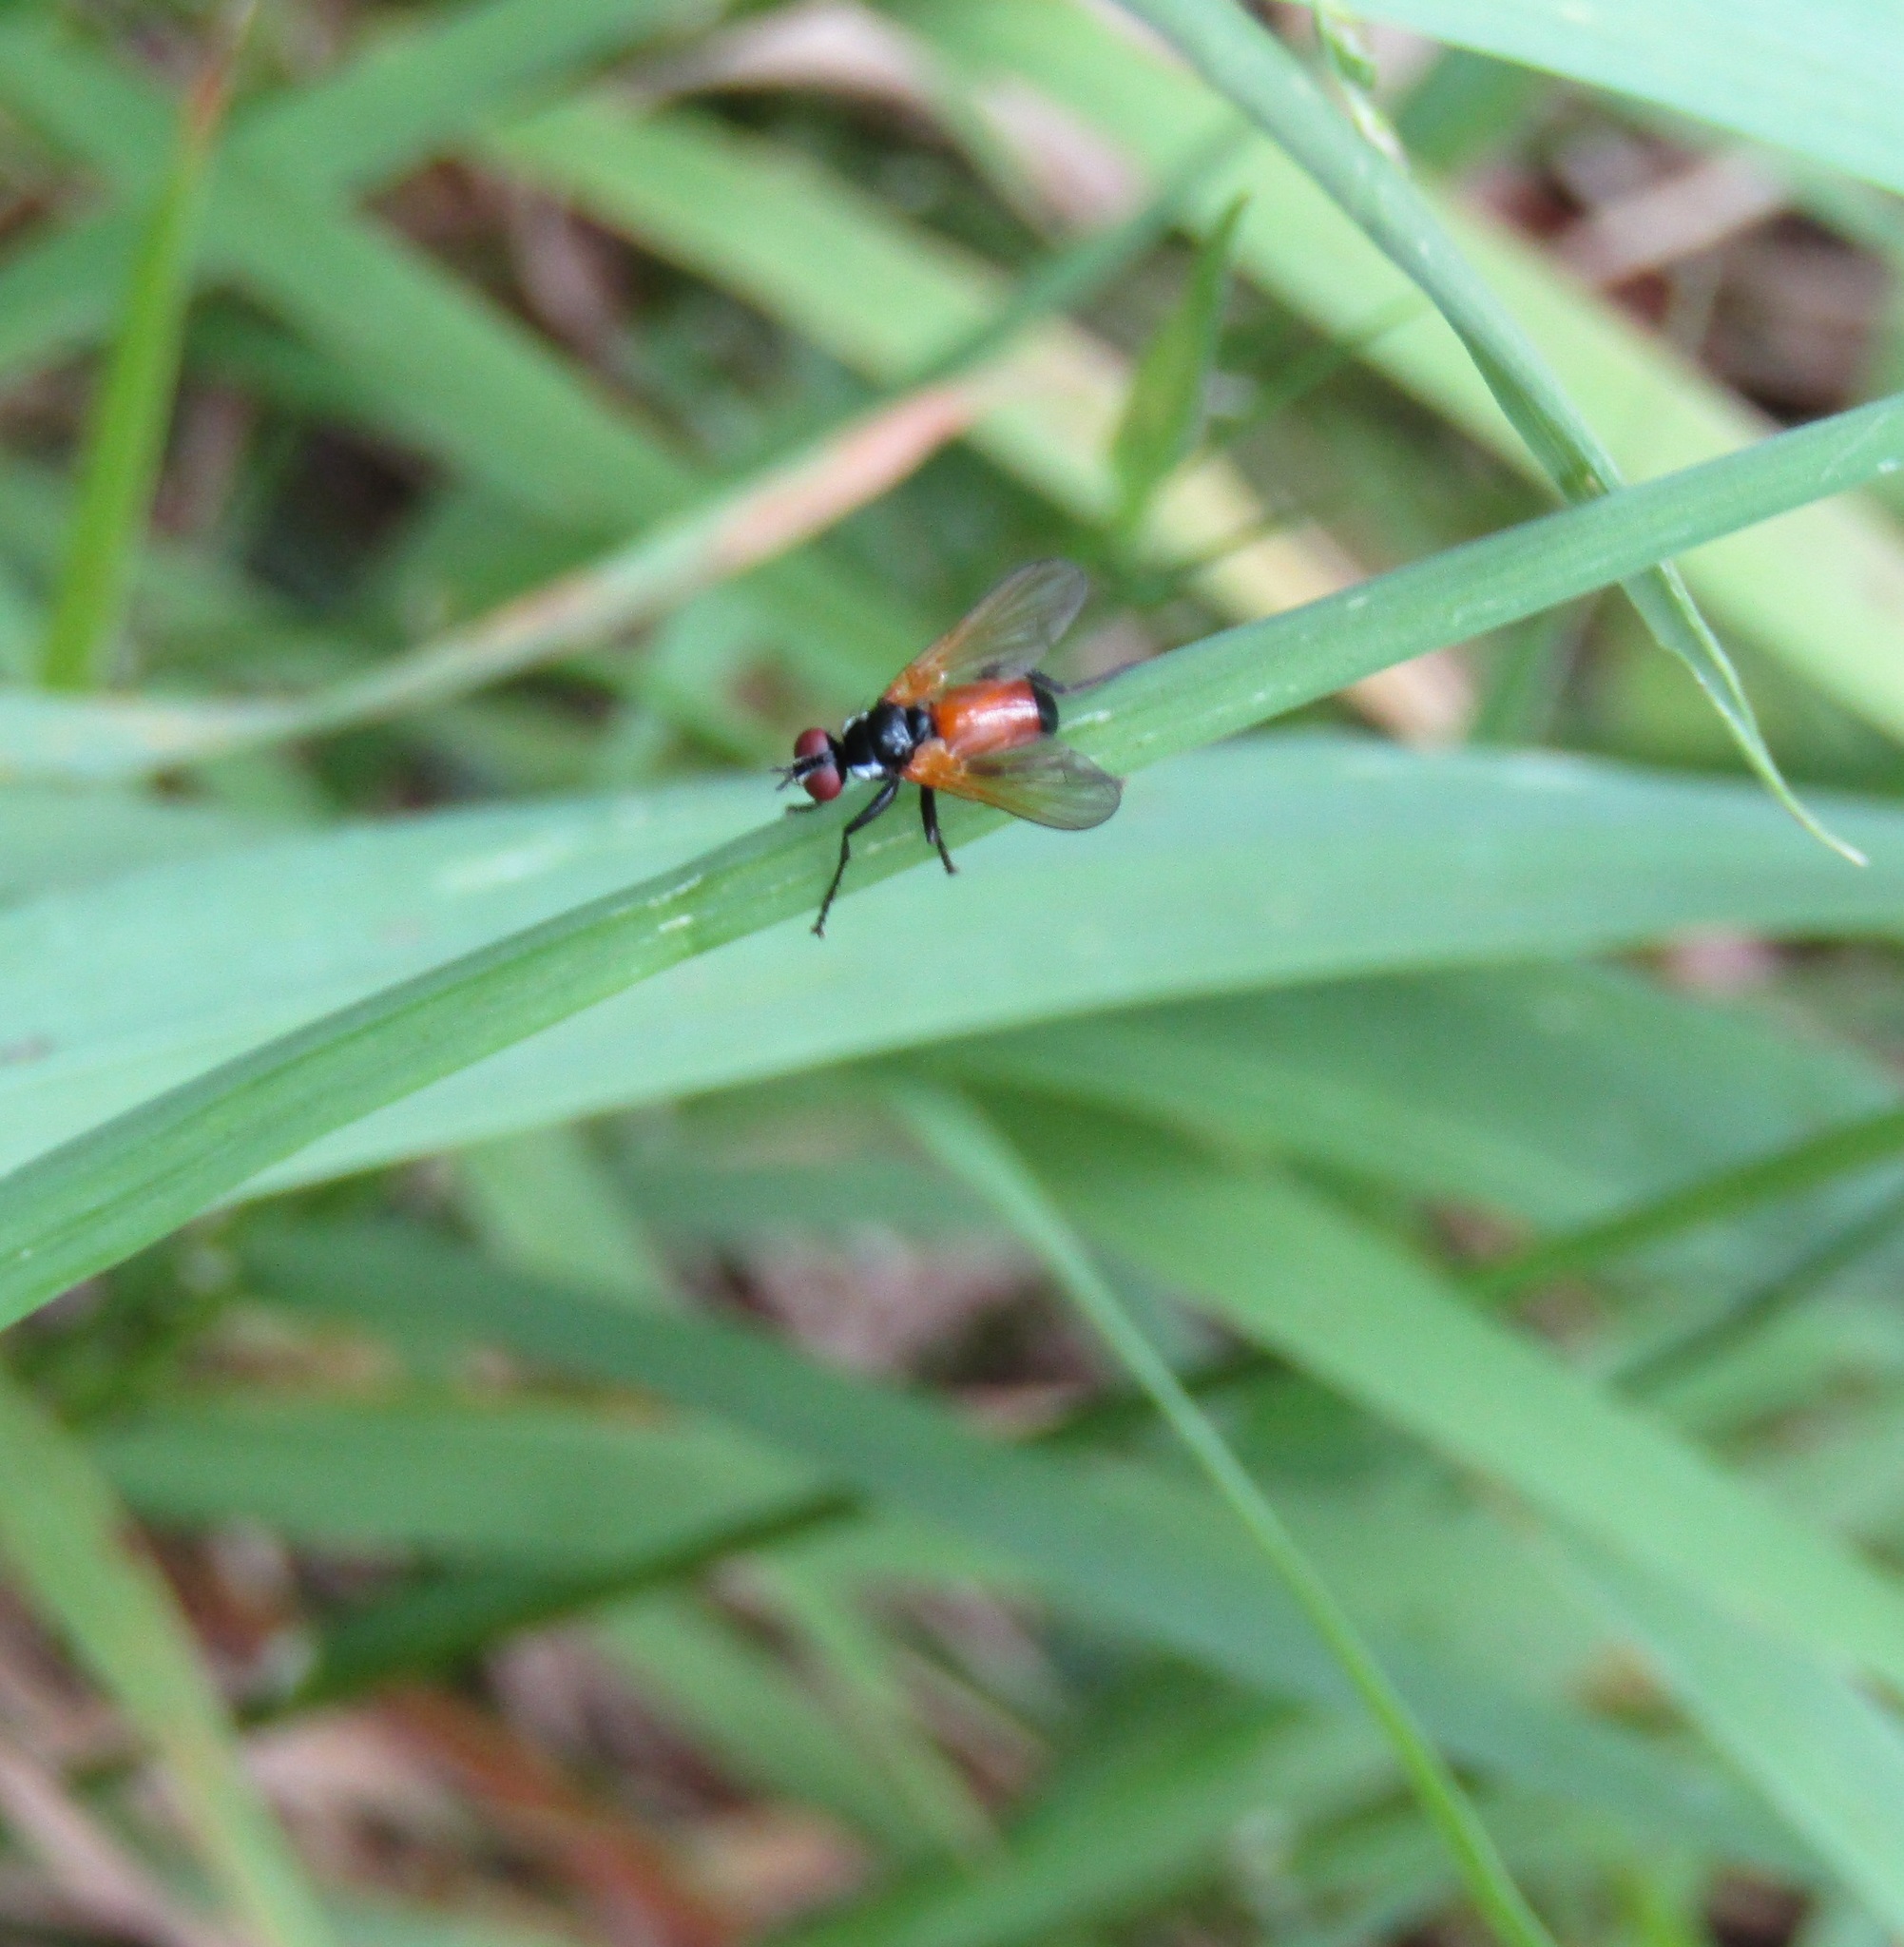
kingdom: Animalia
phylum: Arthropoda
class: Insecta
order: Diptera
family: Tachinidae
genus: Huttonobesseria
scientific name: Huttonobesseria verecunda
